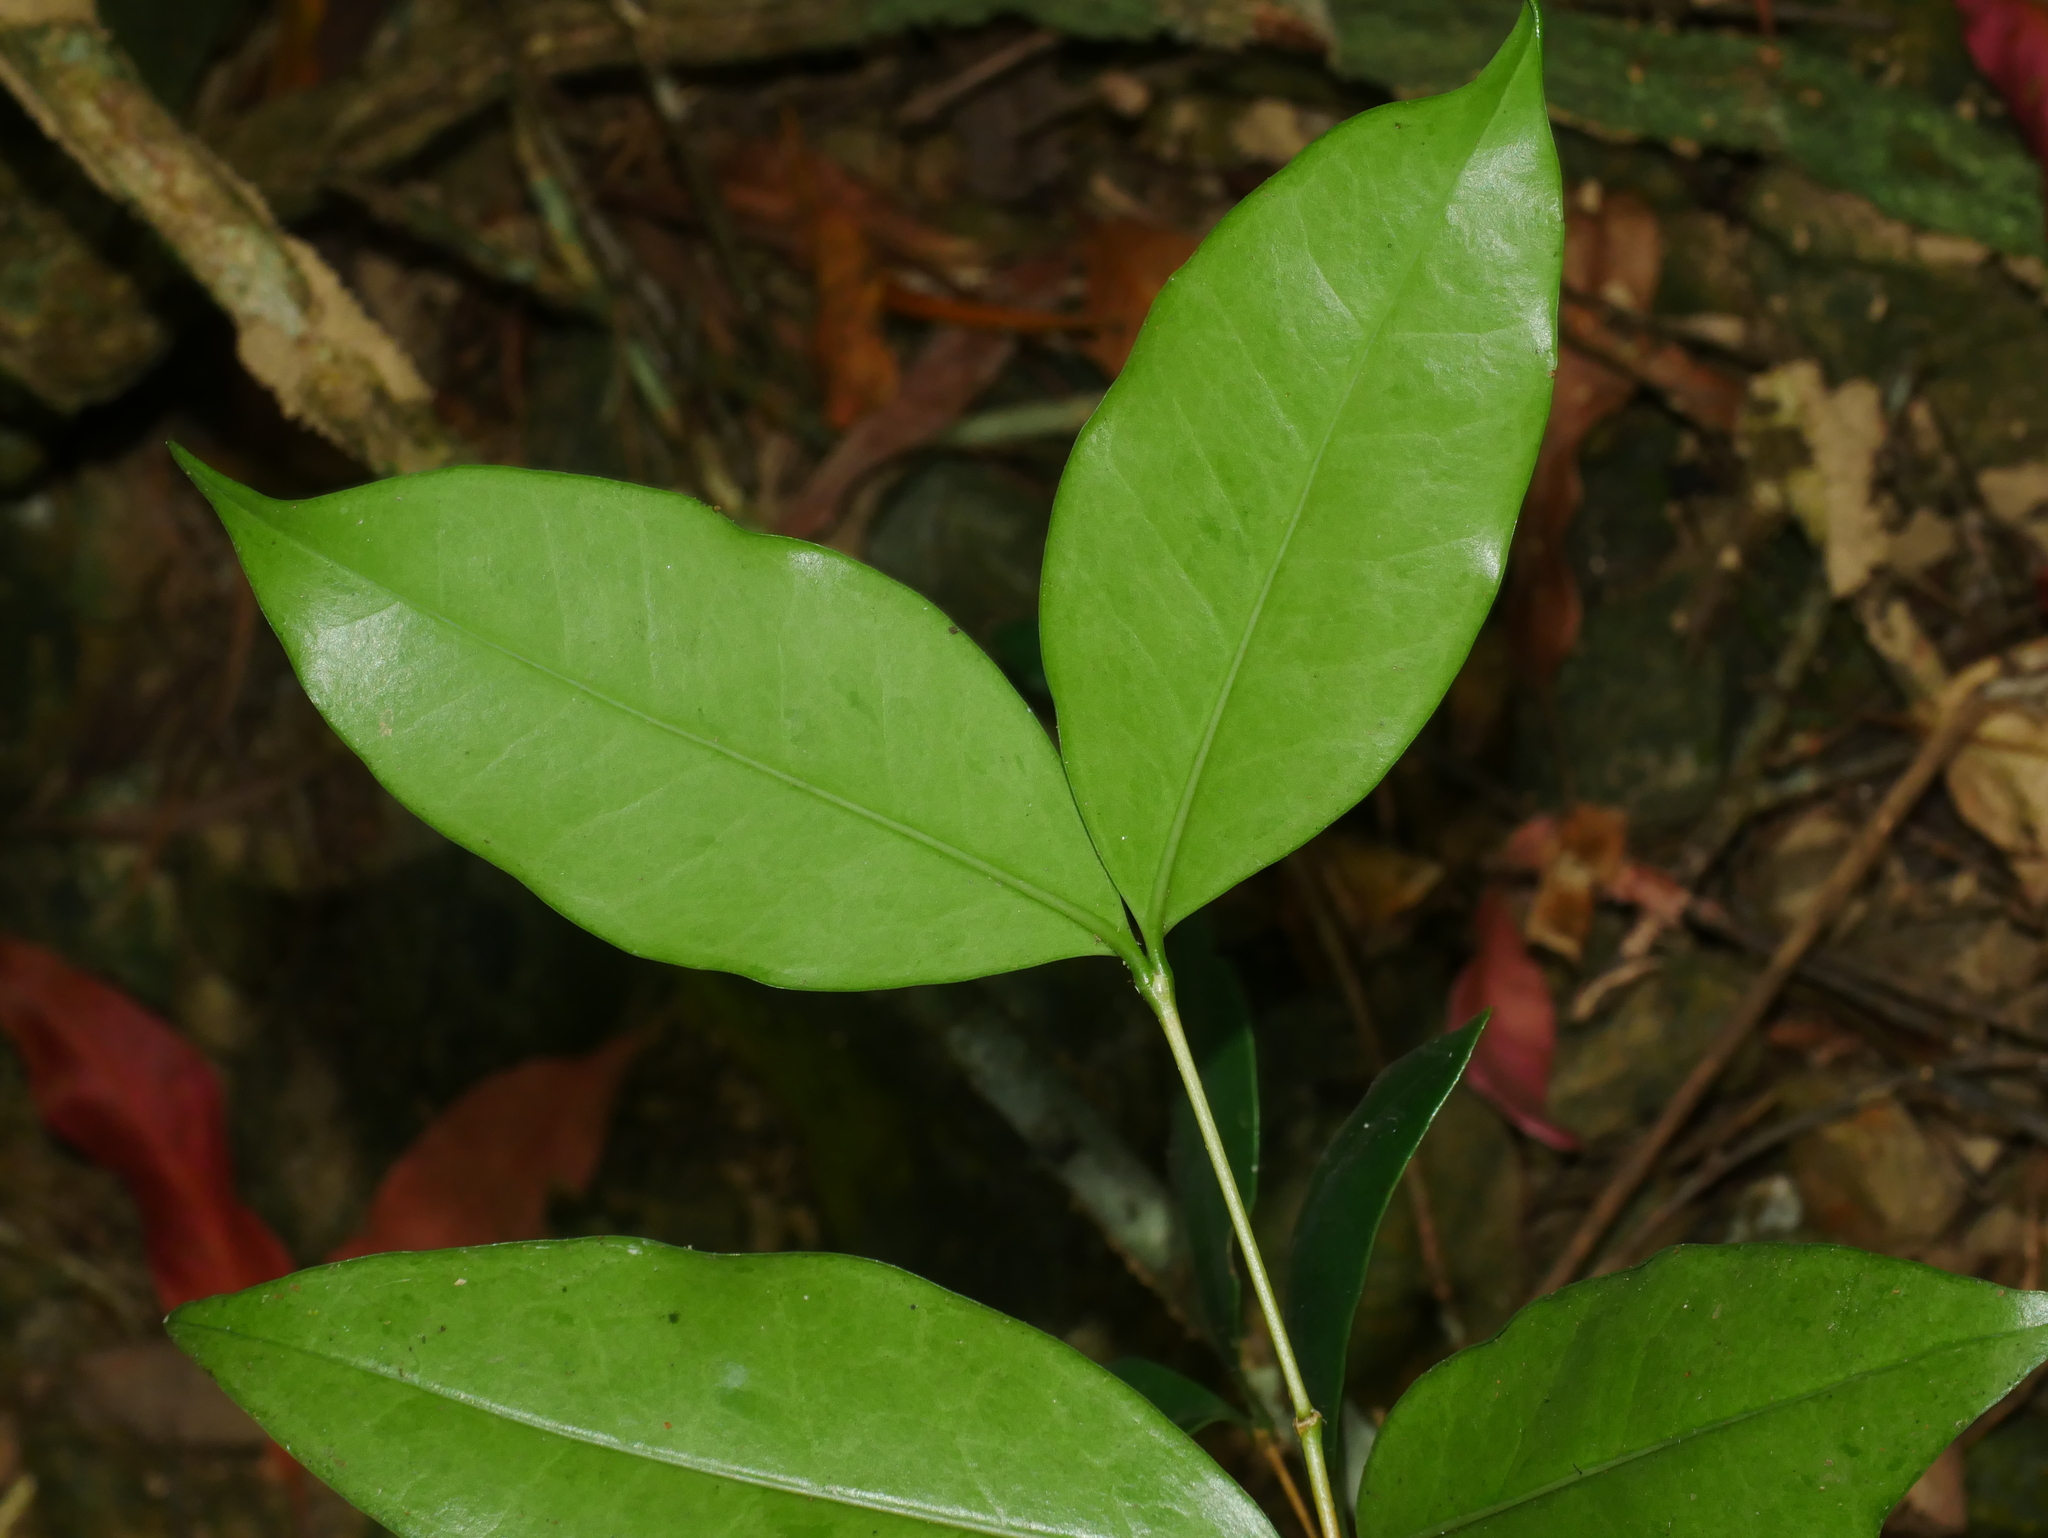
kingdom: Plantae
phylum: Tracheophyta
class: Magnoliopsida
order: Myrtales
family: Melastomataceae
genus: Memecylon
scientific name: Memecylon pendulum
